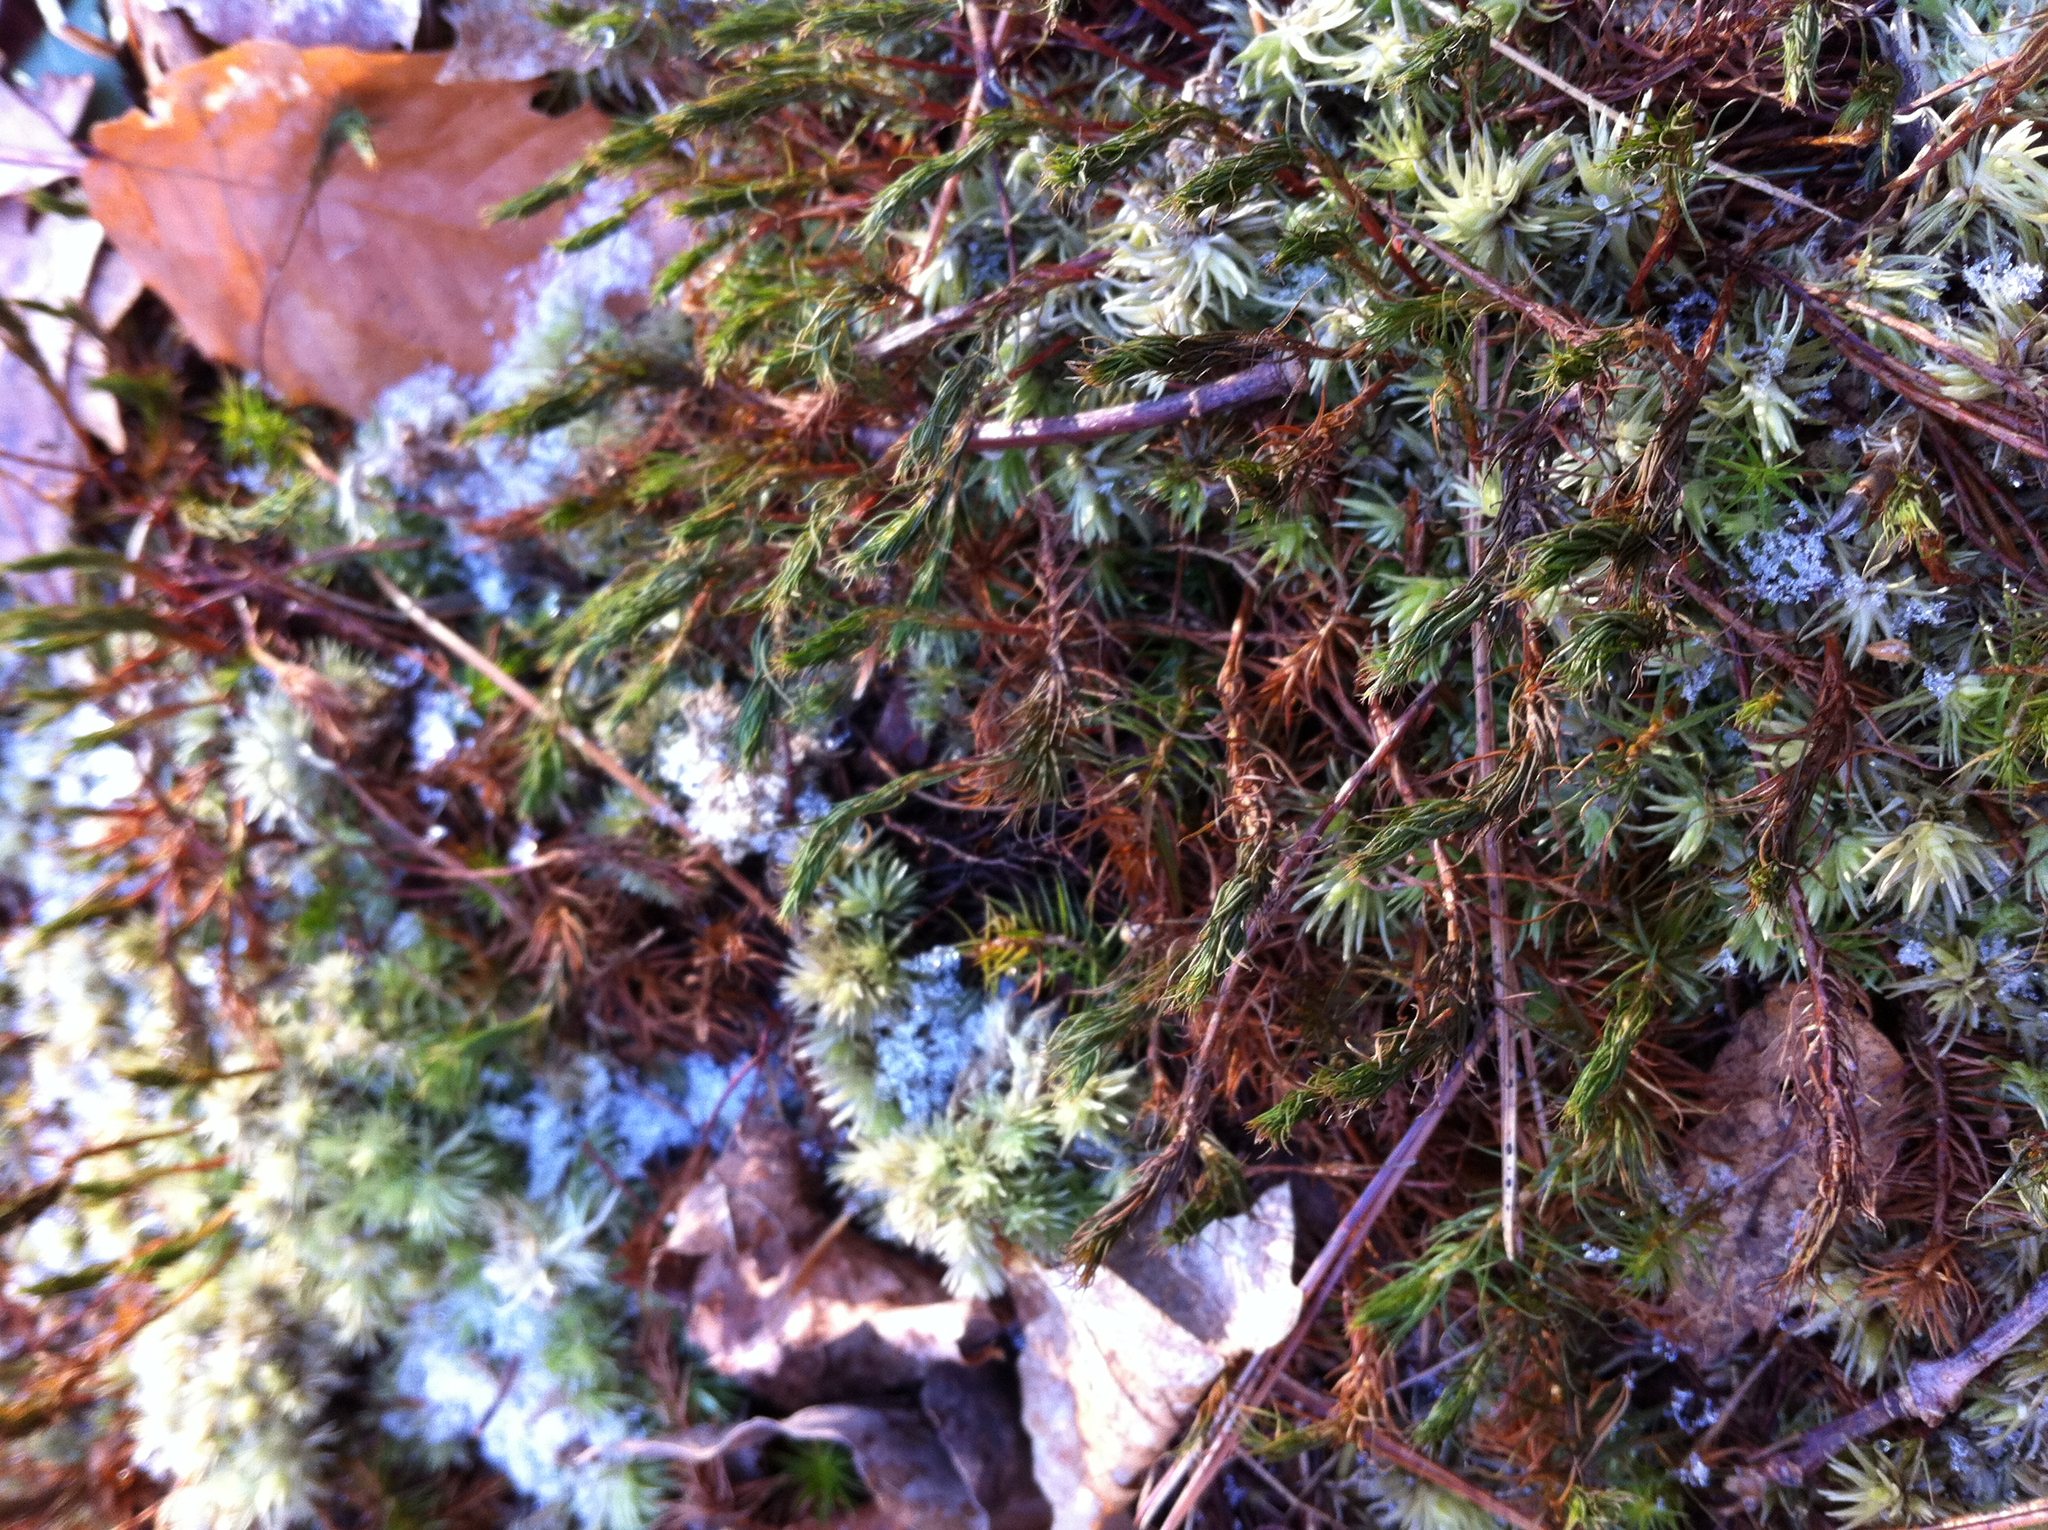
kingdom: Plantae
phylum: Bryophyta
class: Bryopsida
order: Dicranales
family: Leucobryaceae
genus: Leucobryum
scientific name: Leucobryum glaucum
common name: Large white-moss
